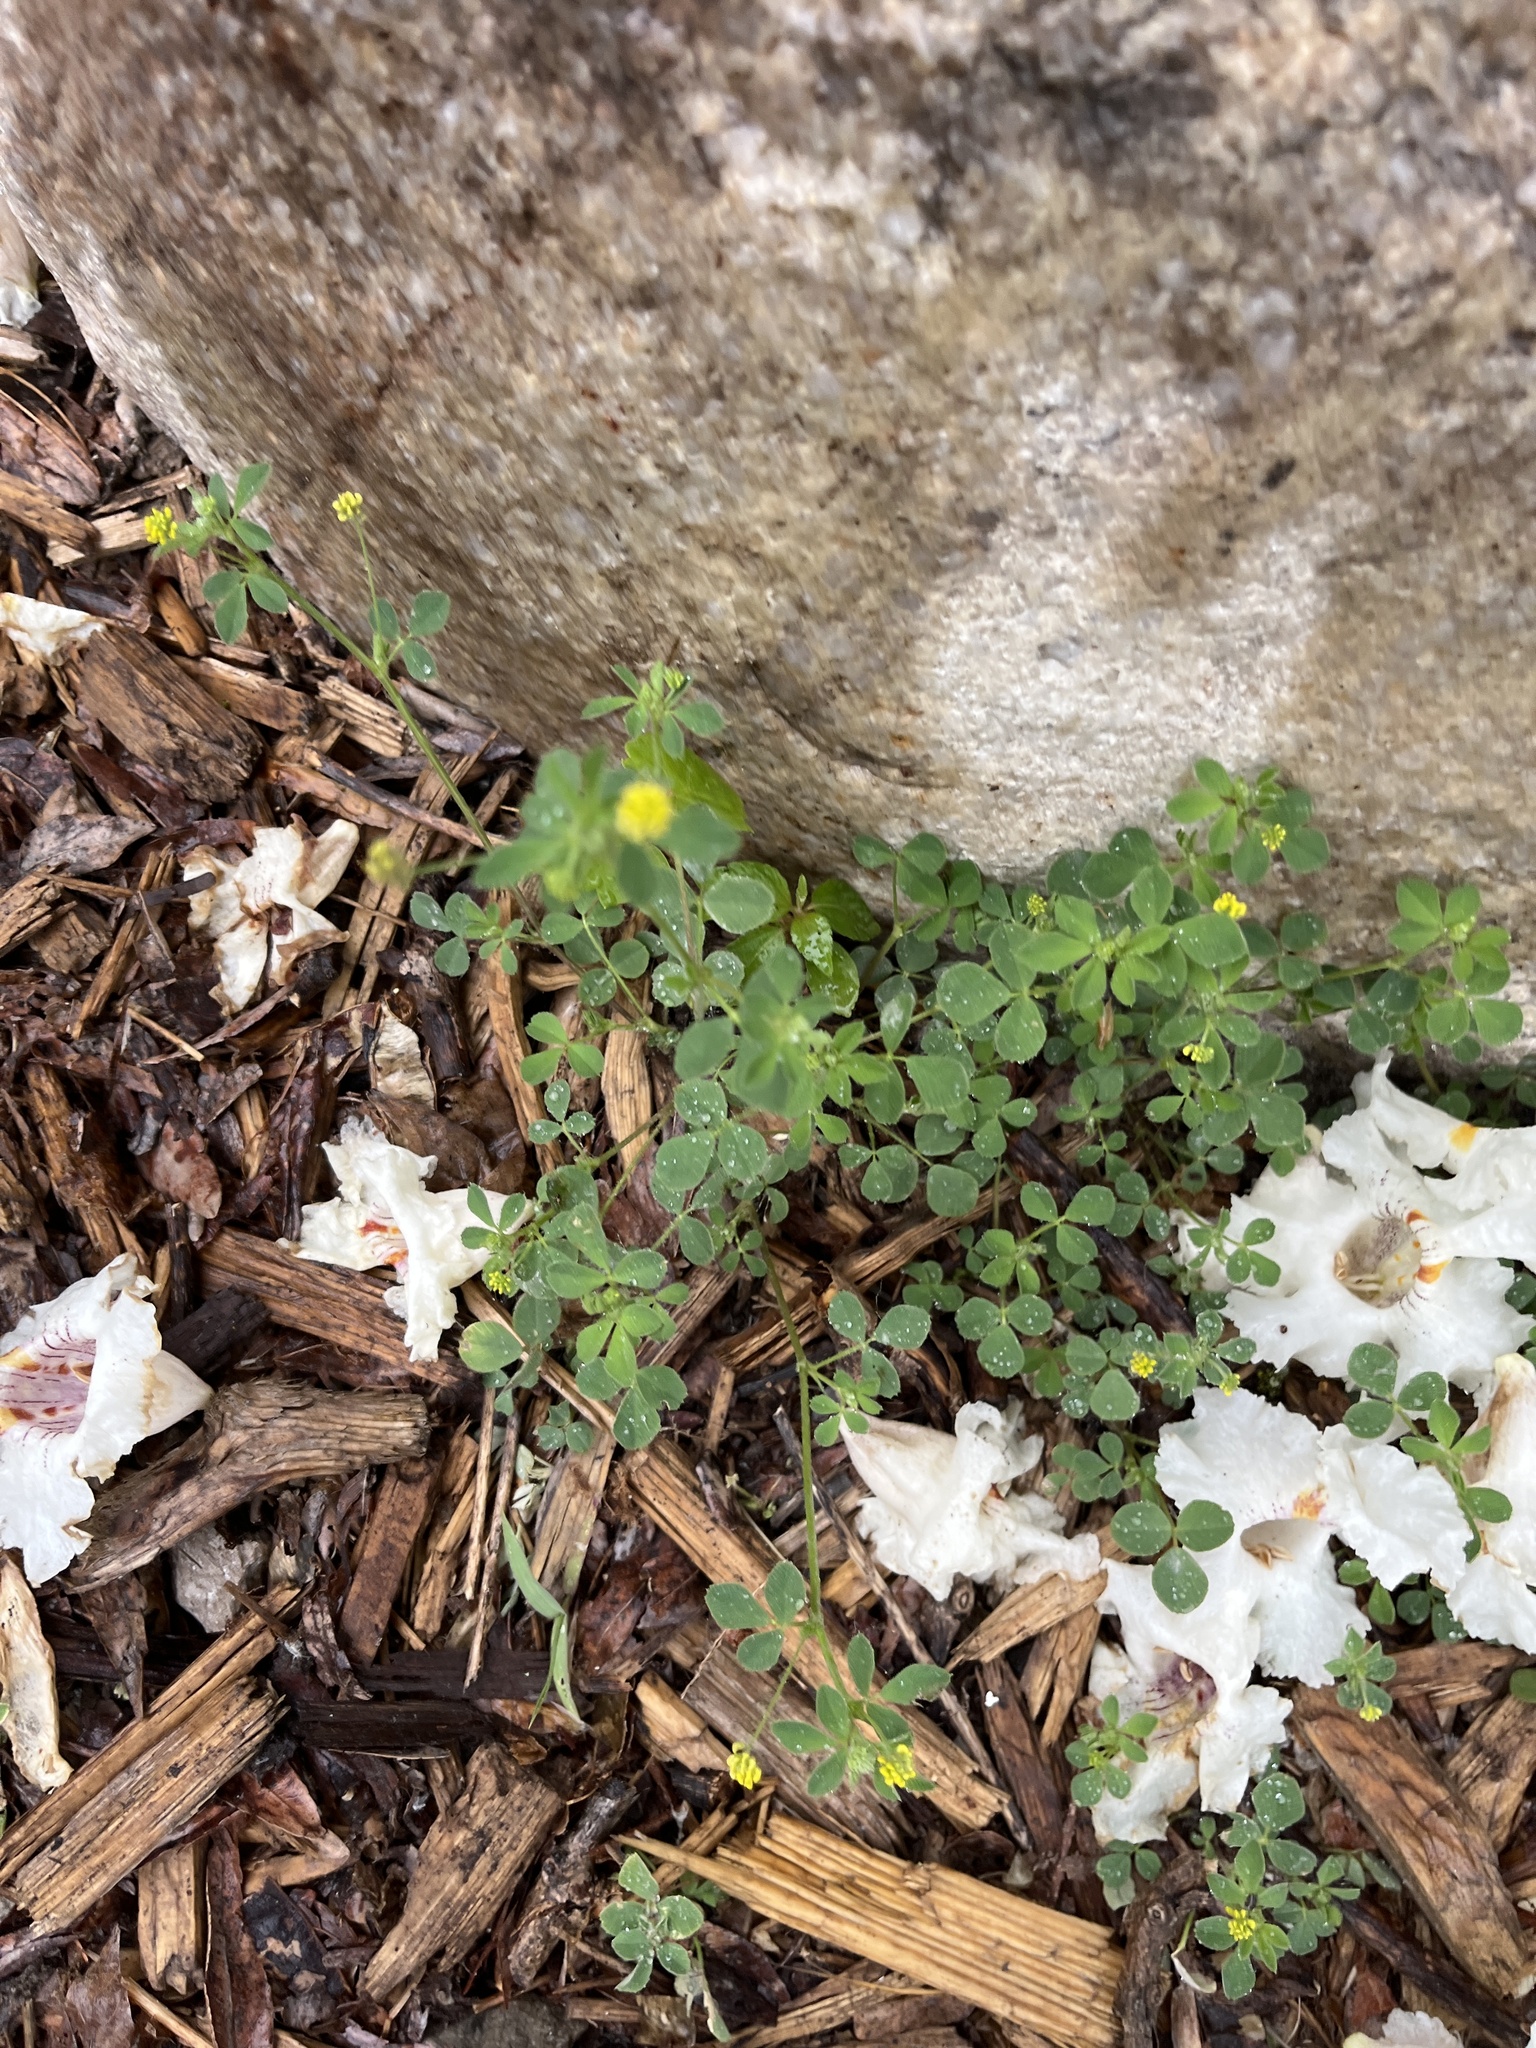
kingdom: Plantae
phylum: Tracheophyta
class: Magnoliopsida
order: Fabales
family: Fabaceae
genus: Medicago
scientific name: Medicago lupulina
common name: Black medick
